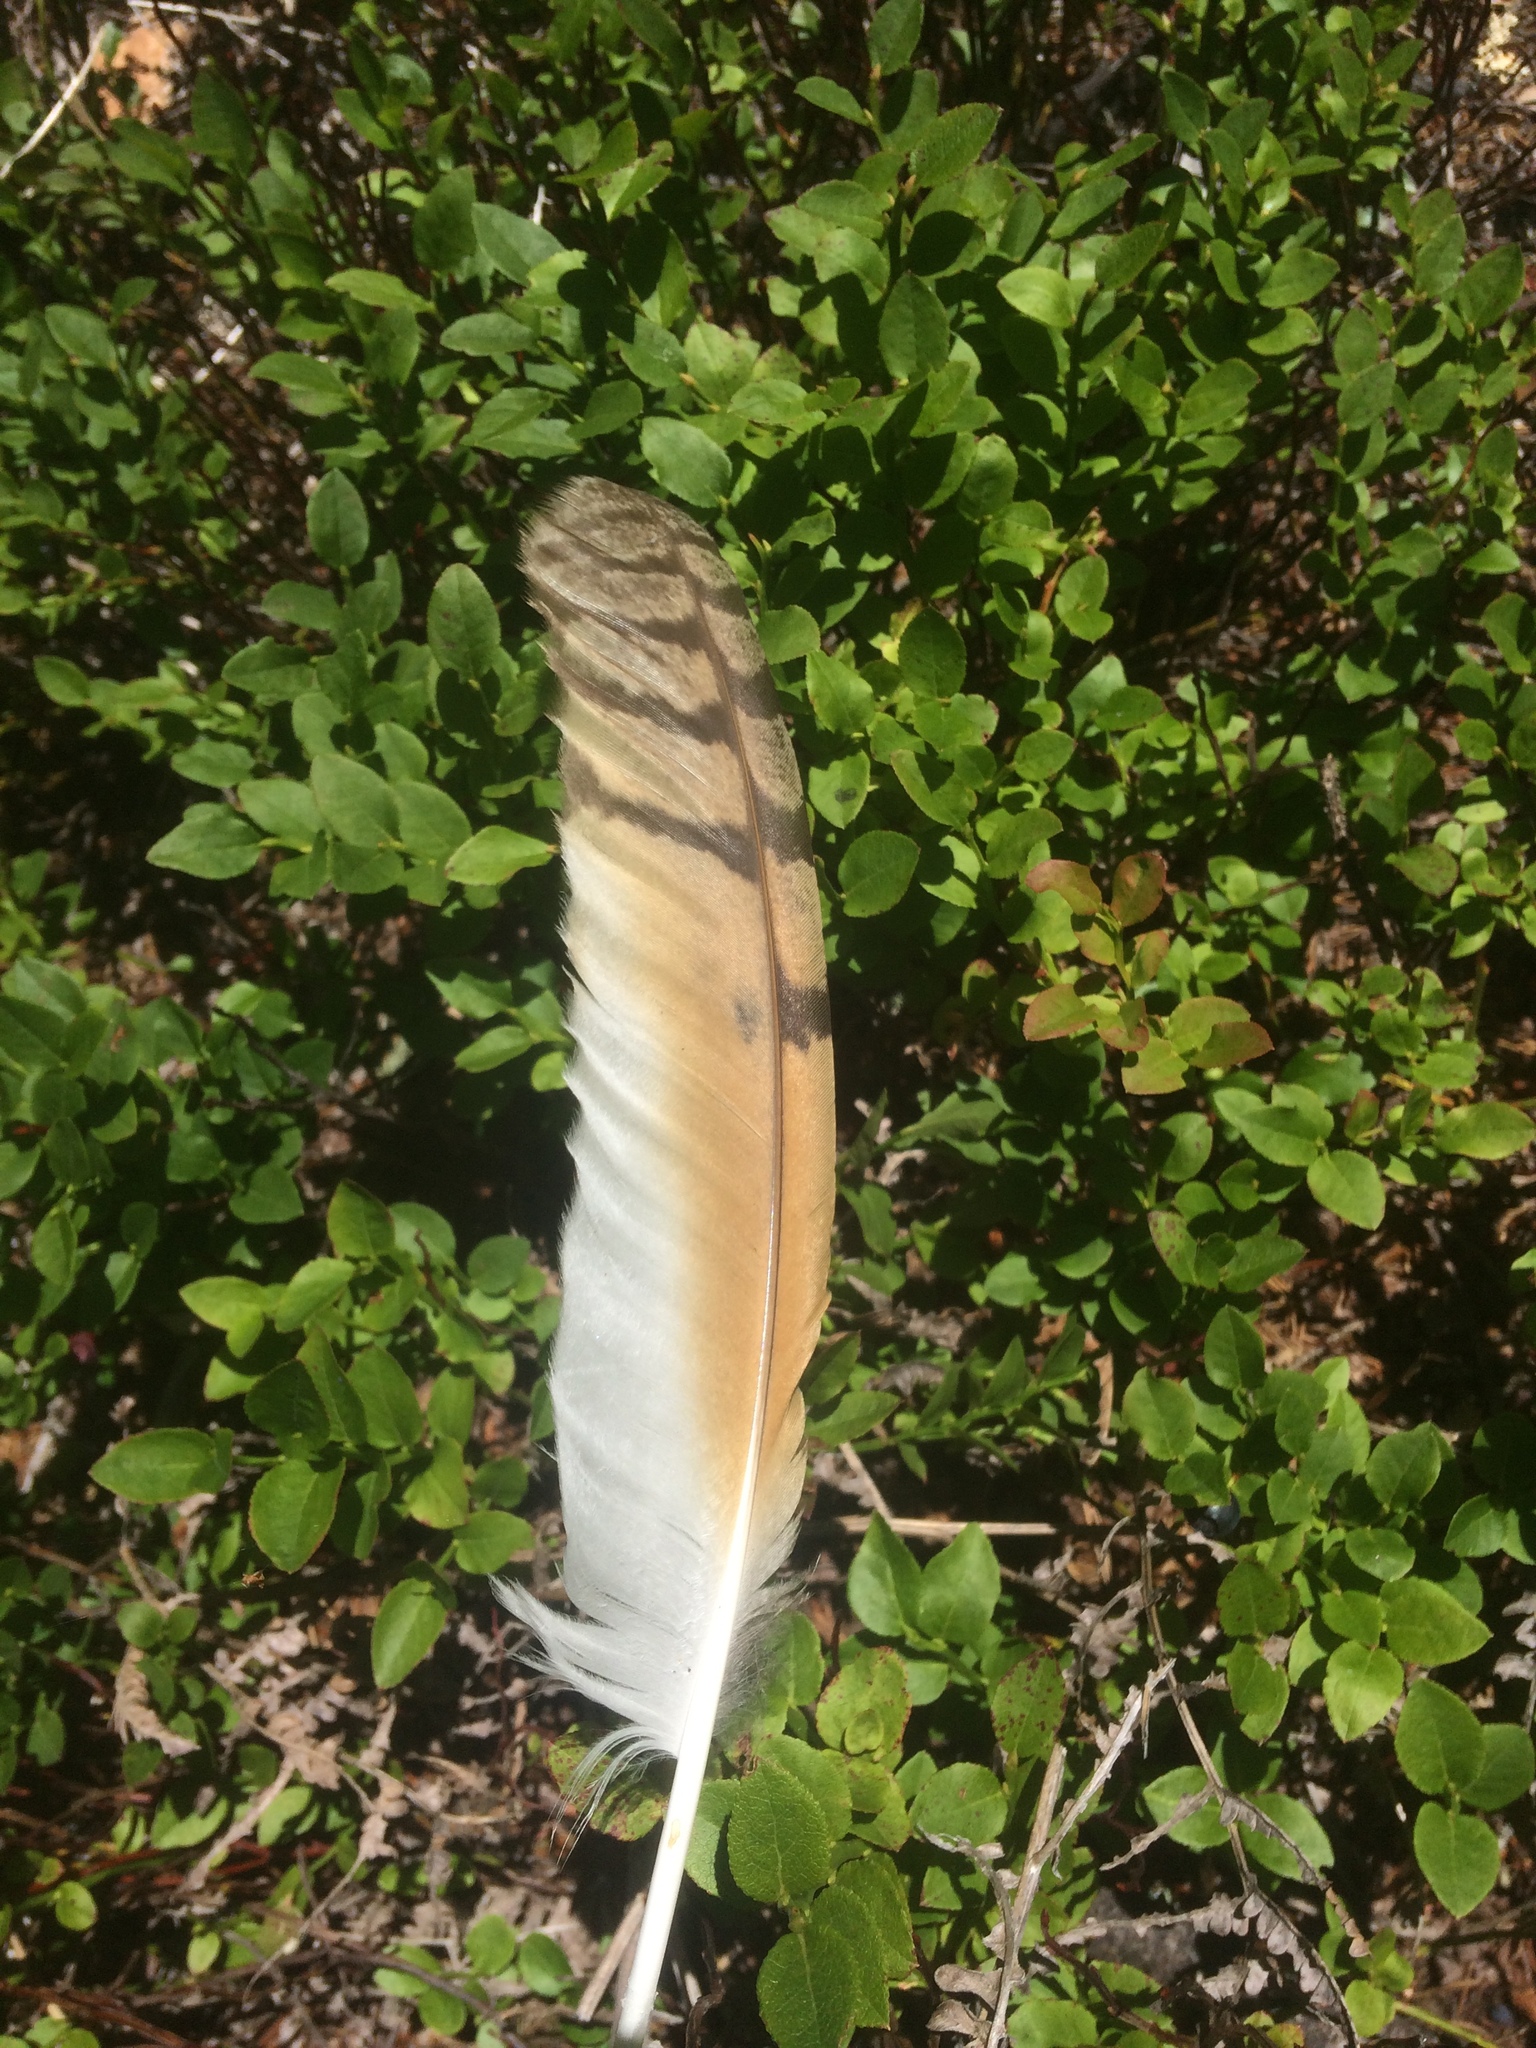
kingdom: Animalia
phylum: Chordata
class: Aves
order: Strigiformes
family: Strigidae
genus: Asio
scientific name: Asio otus
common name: Long-eared owl
